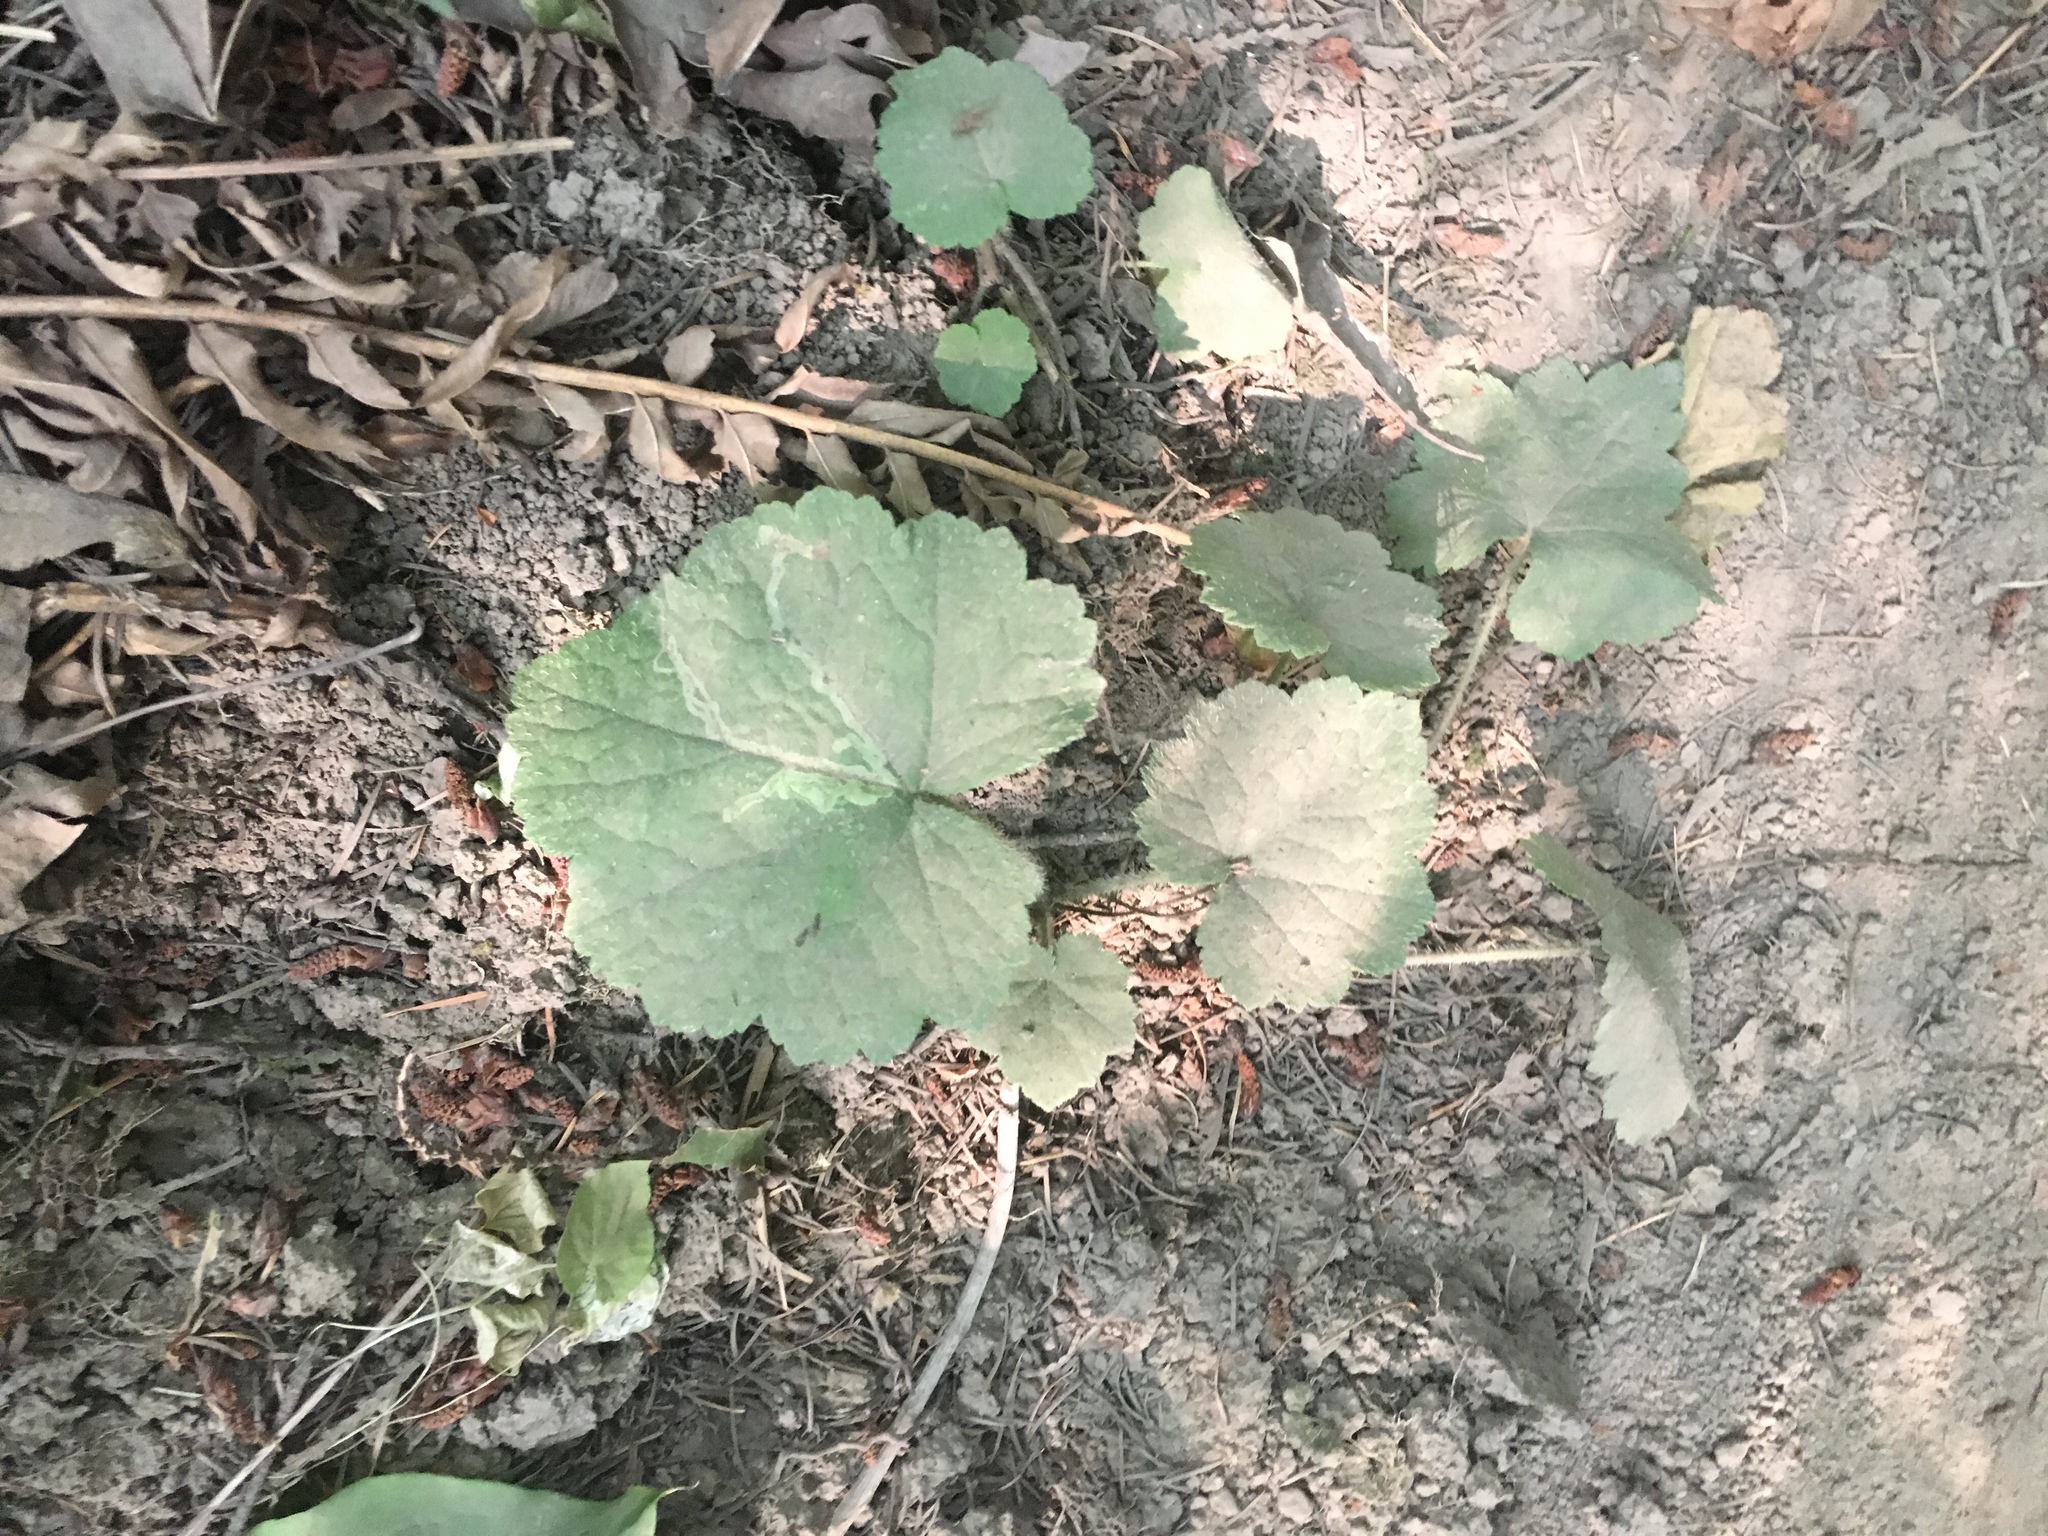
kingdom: Plantae
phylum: Tracheophyta
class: Magnoliopsida
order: Saxifragales
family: Saxifragaceae
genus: Tellima
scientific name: Tellima grandiflora
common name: Fringecups
